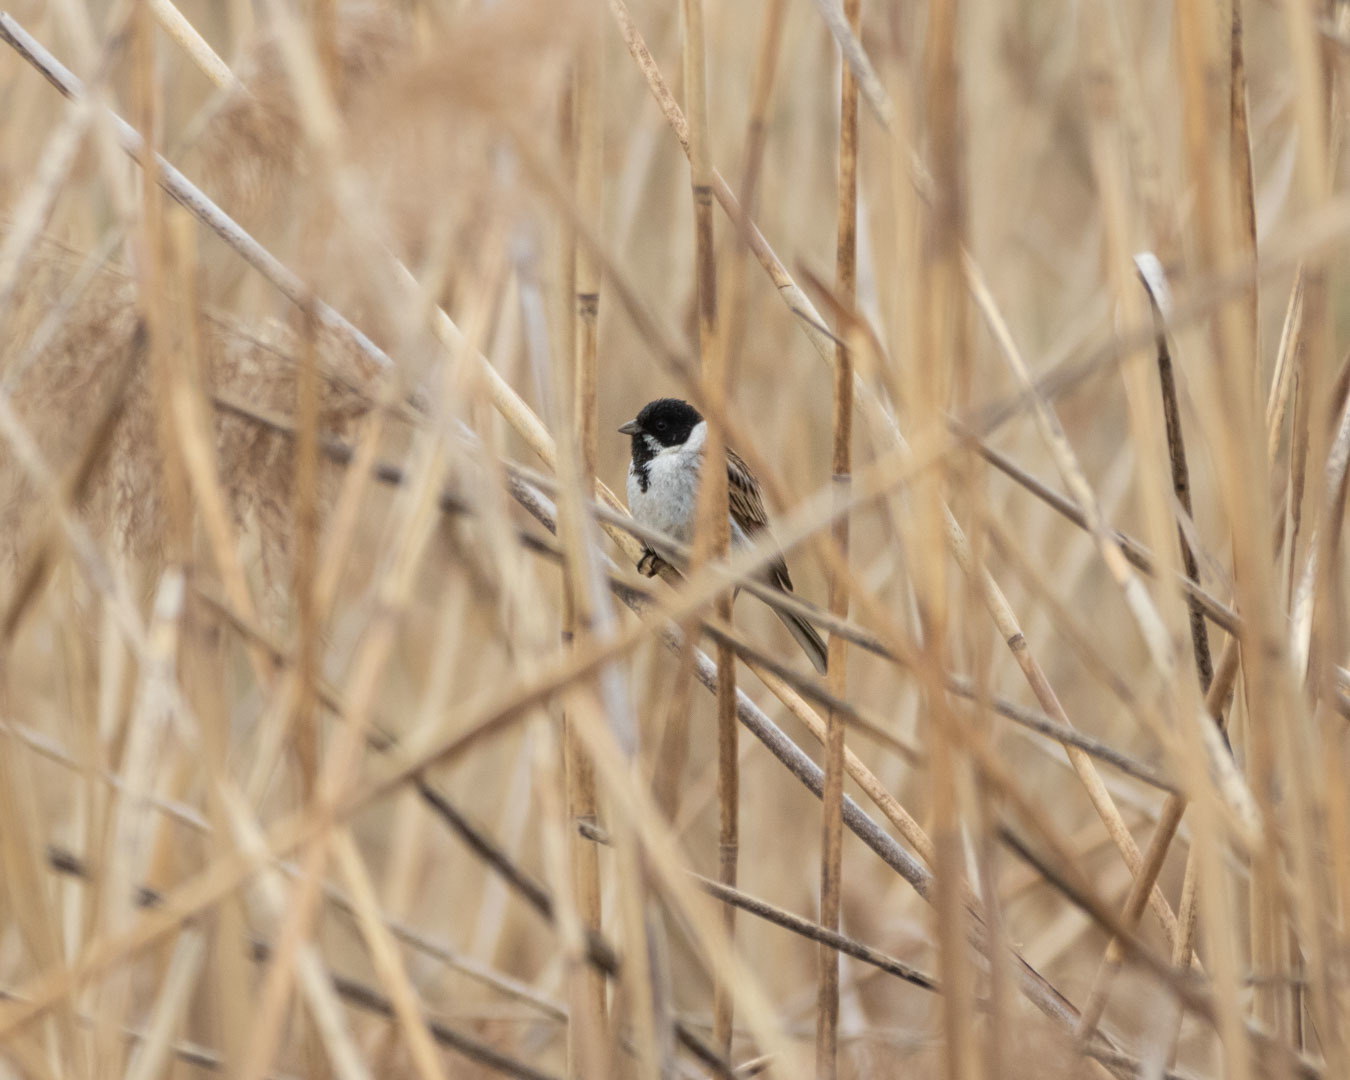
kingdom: Animalia
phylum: Chordata
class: Aves
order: Passeriformes
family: Emberizidae
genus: Emberiza
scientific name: Emberiza schoeniclus
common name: Reed bunting
